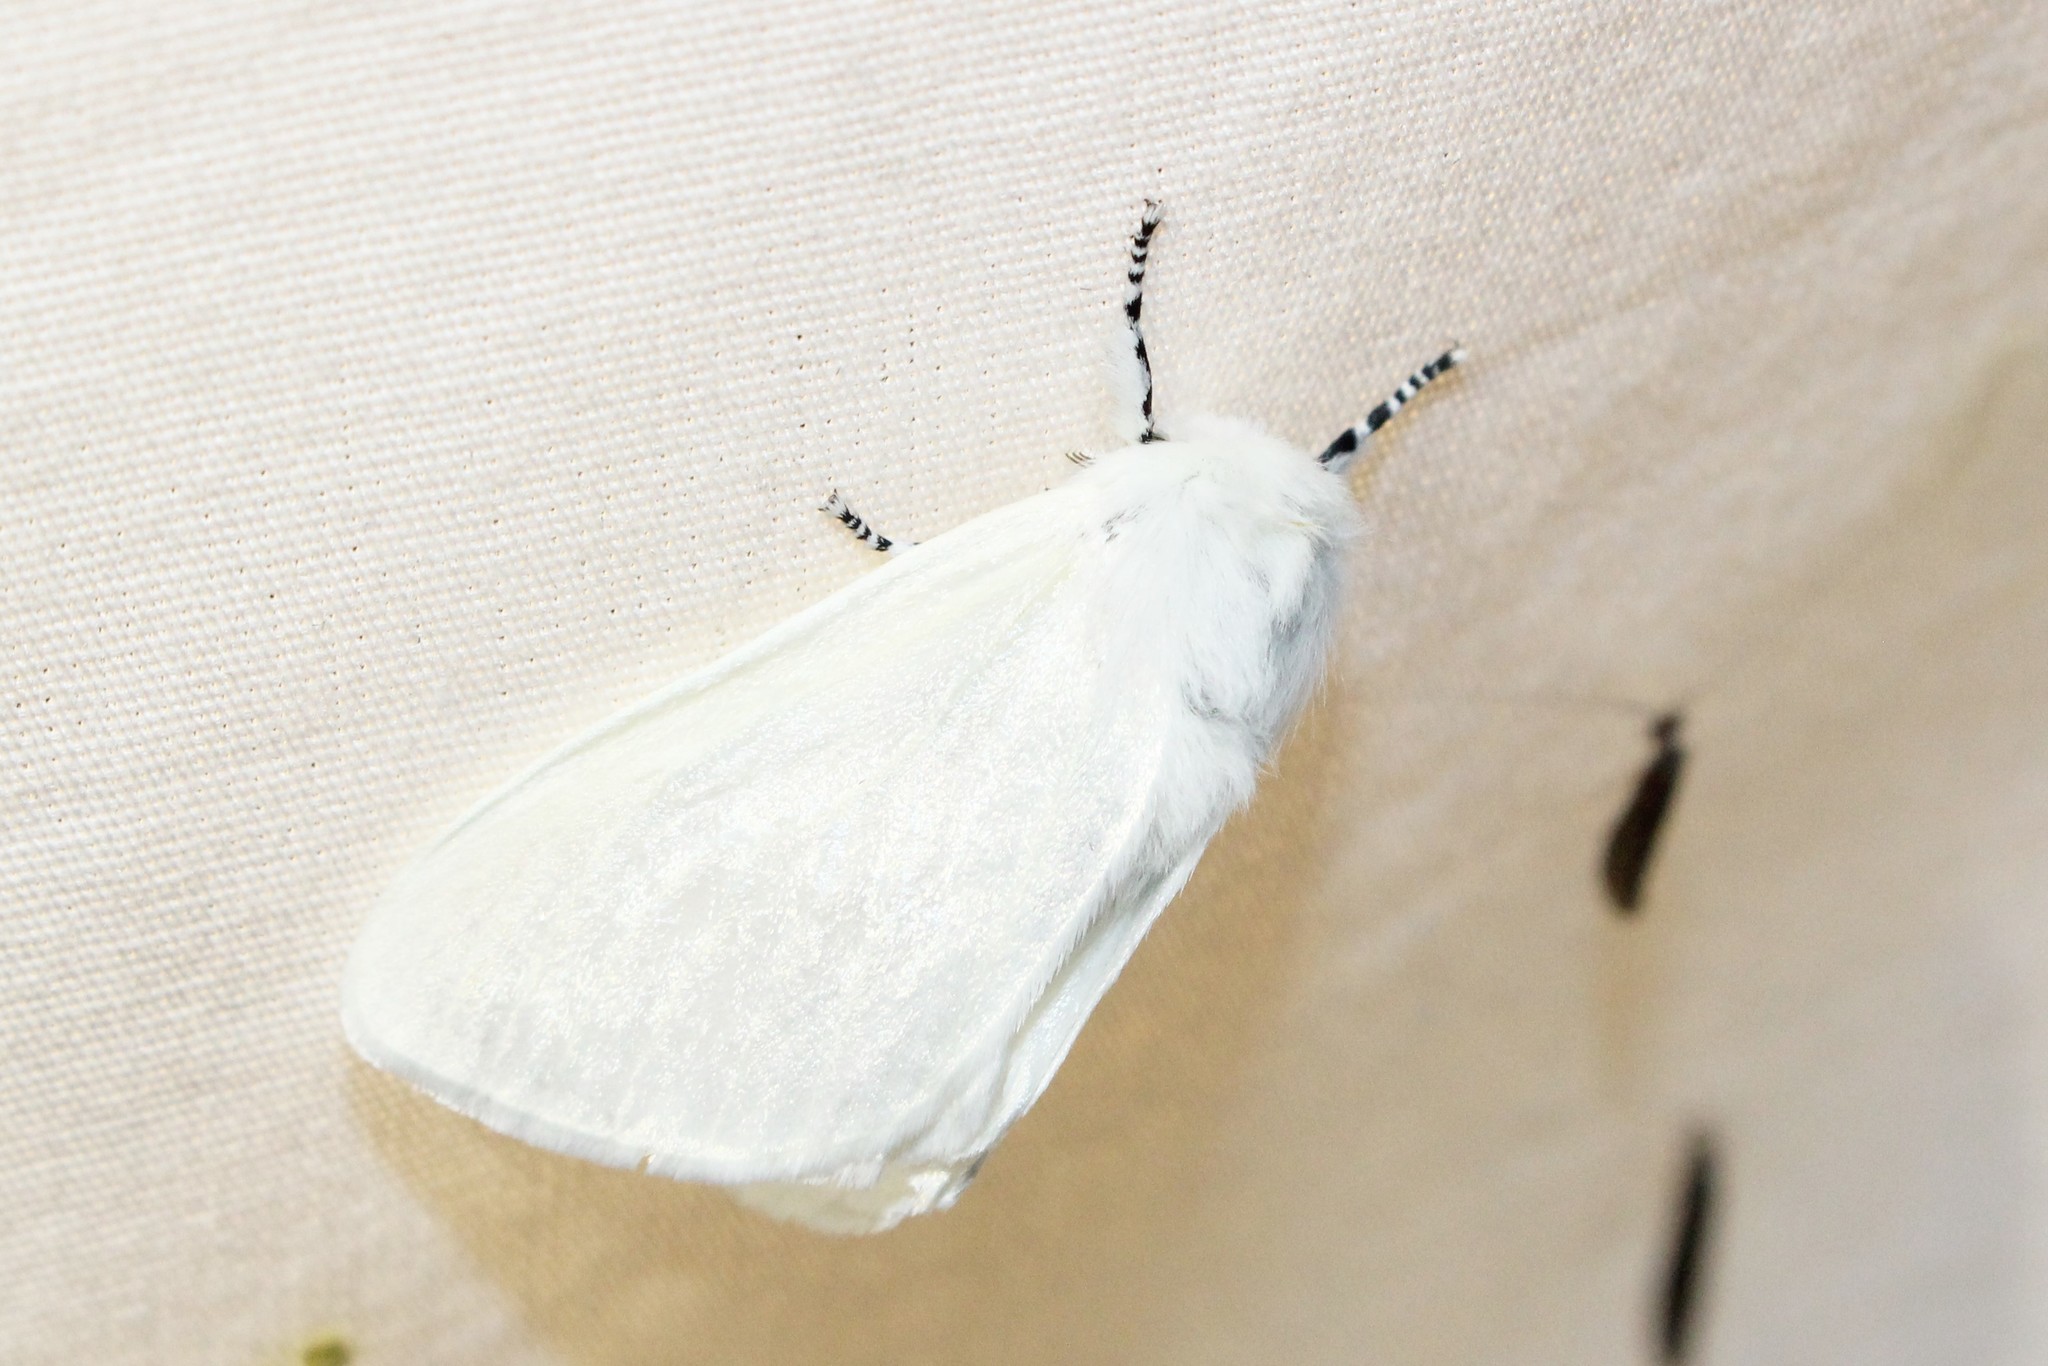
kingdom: Animalia
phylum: Arthropoda
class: Insecta
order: Lepidoptera
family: Erebidae
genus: Leucoma
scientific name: Leucoma salicis
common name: White satin moth
